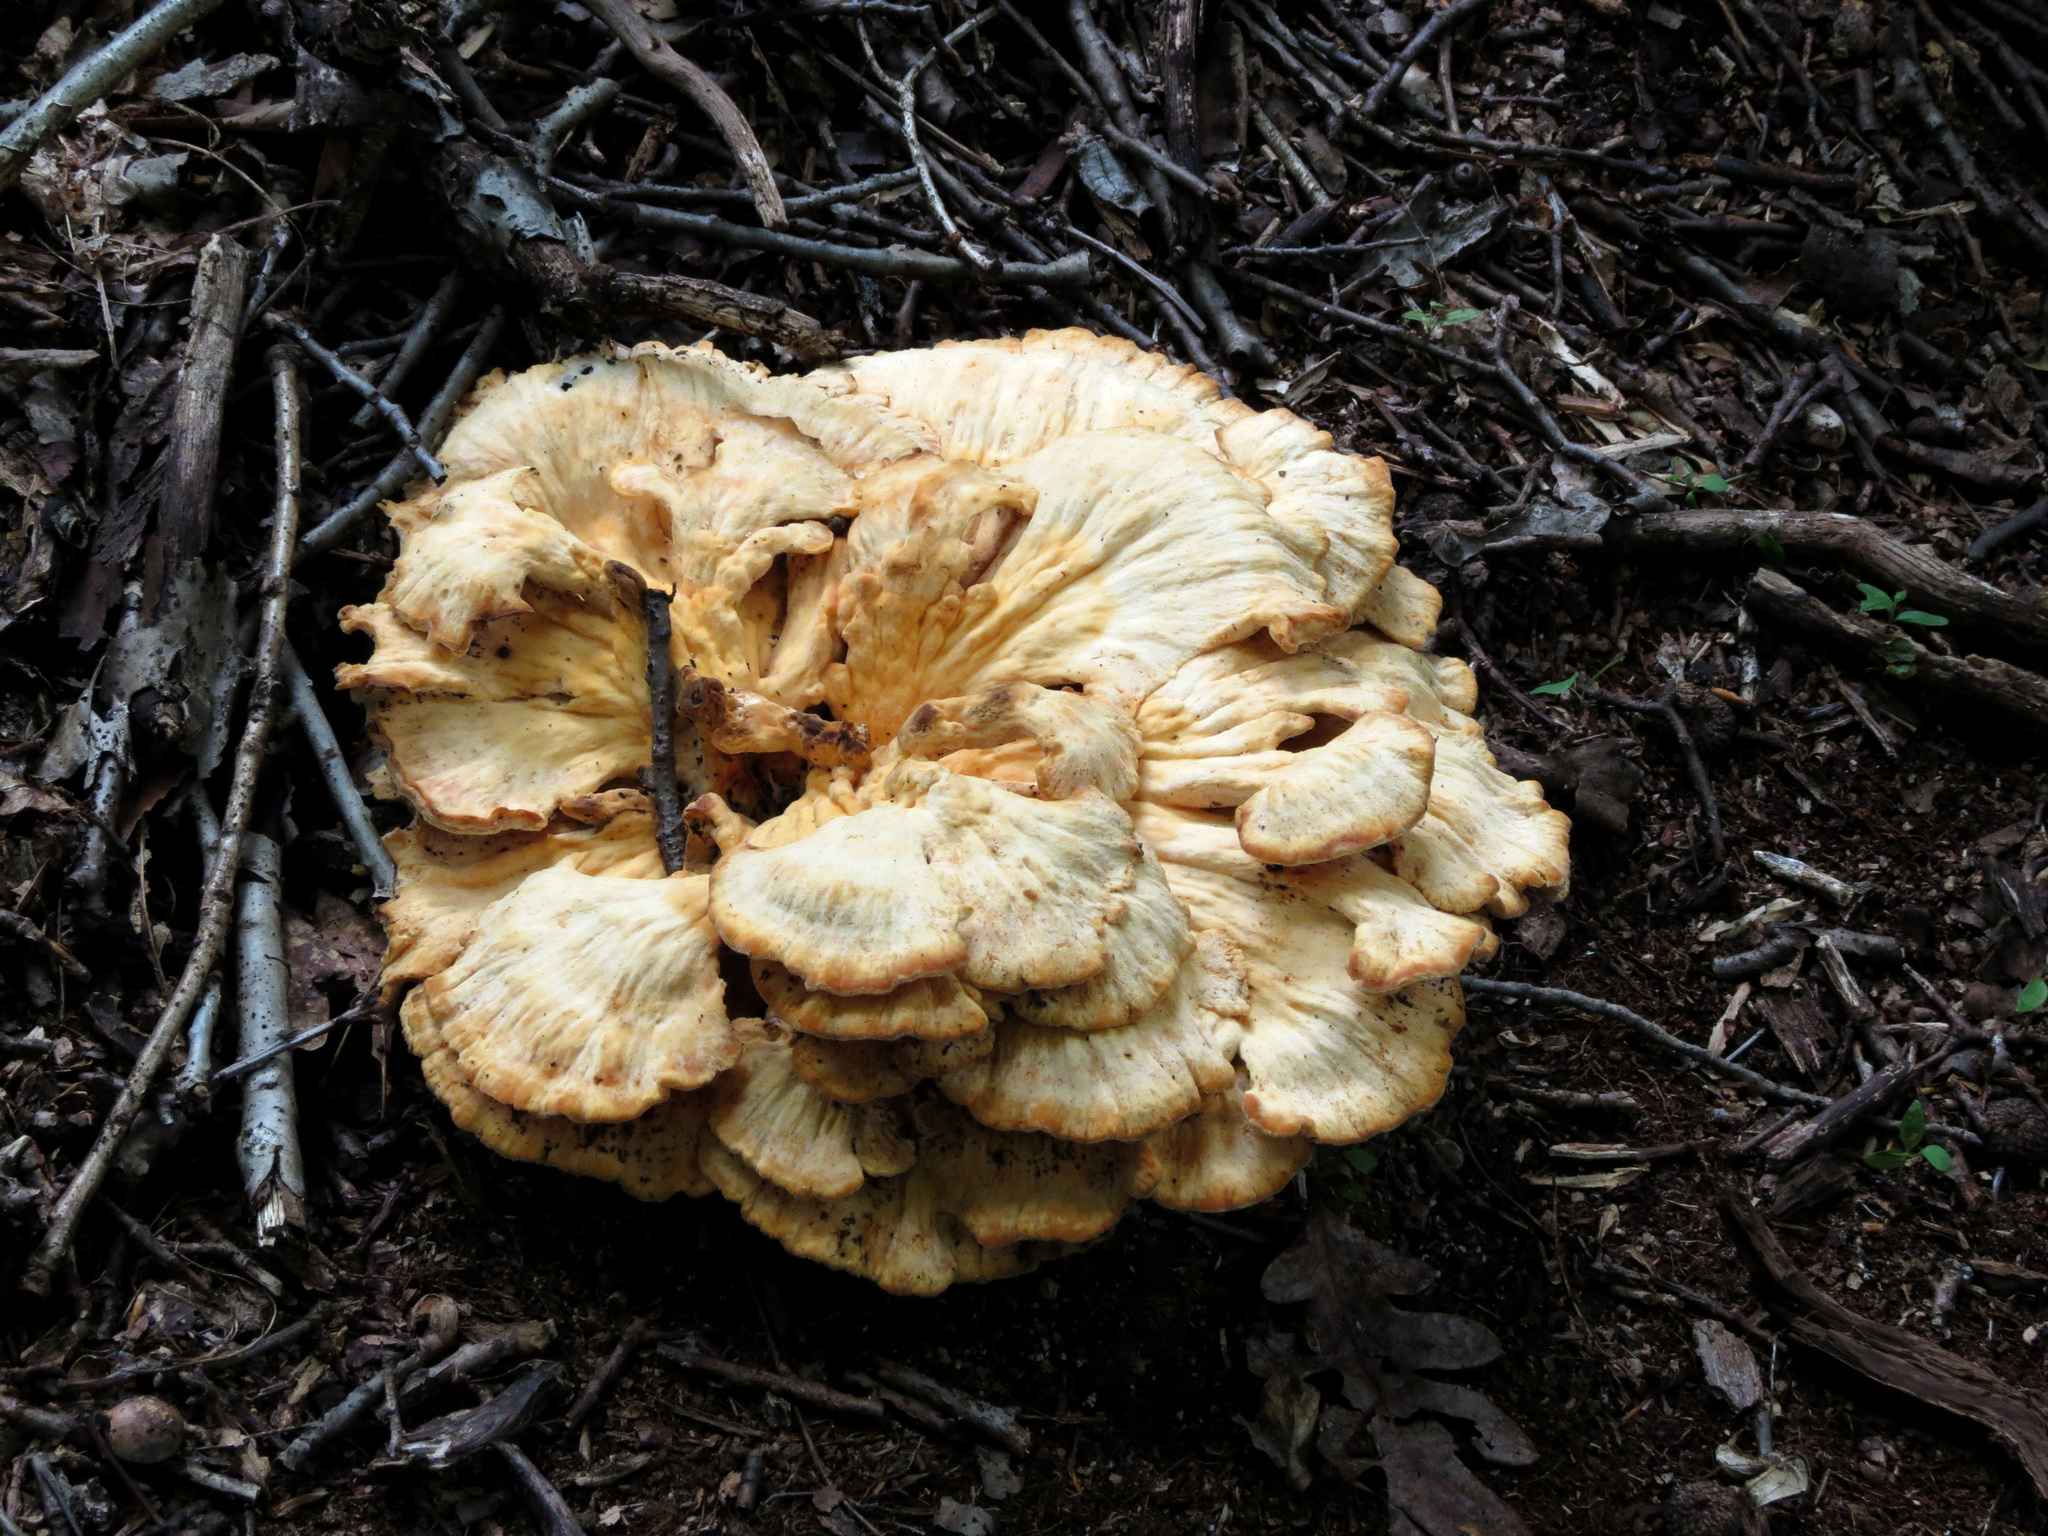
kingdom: Fungi
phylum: Basidiomycota
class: Agaricomycetes
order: Polyporales
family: Laetiporaceae
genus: Laetiporus
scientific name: Laetiporus sulphureus
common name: Chicken of the woods
